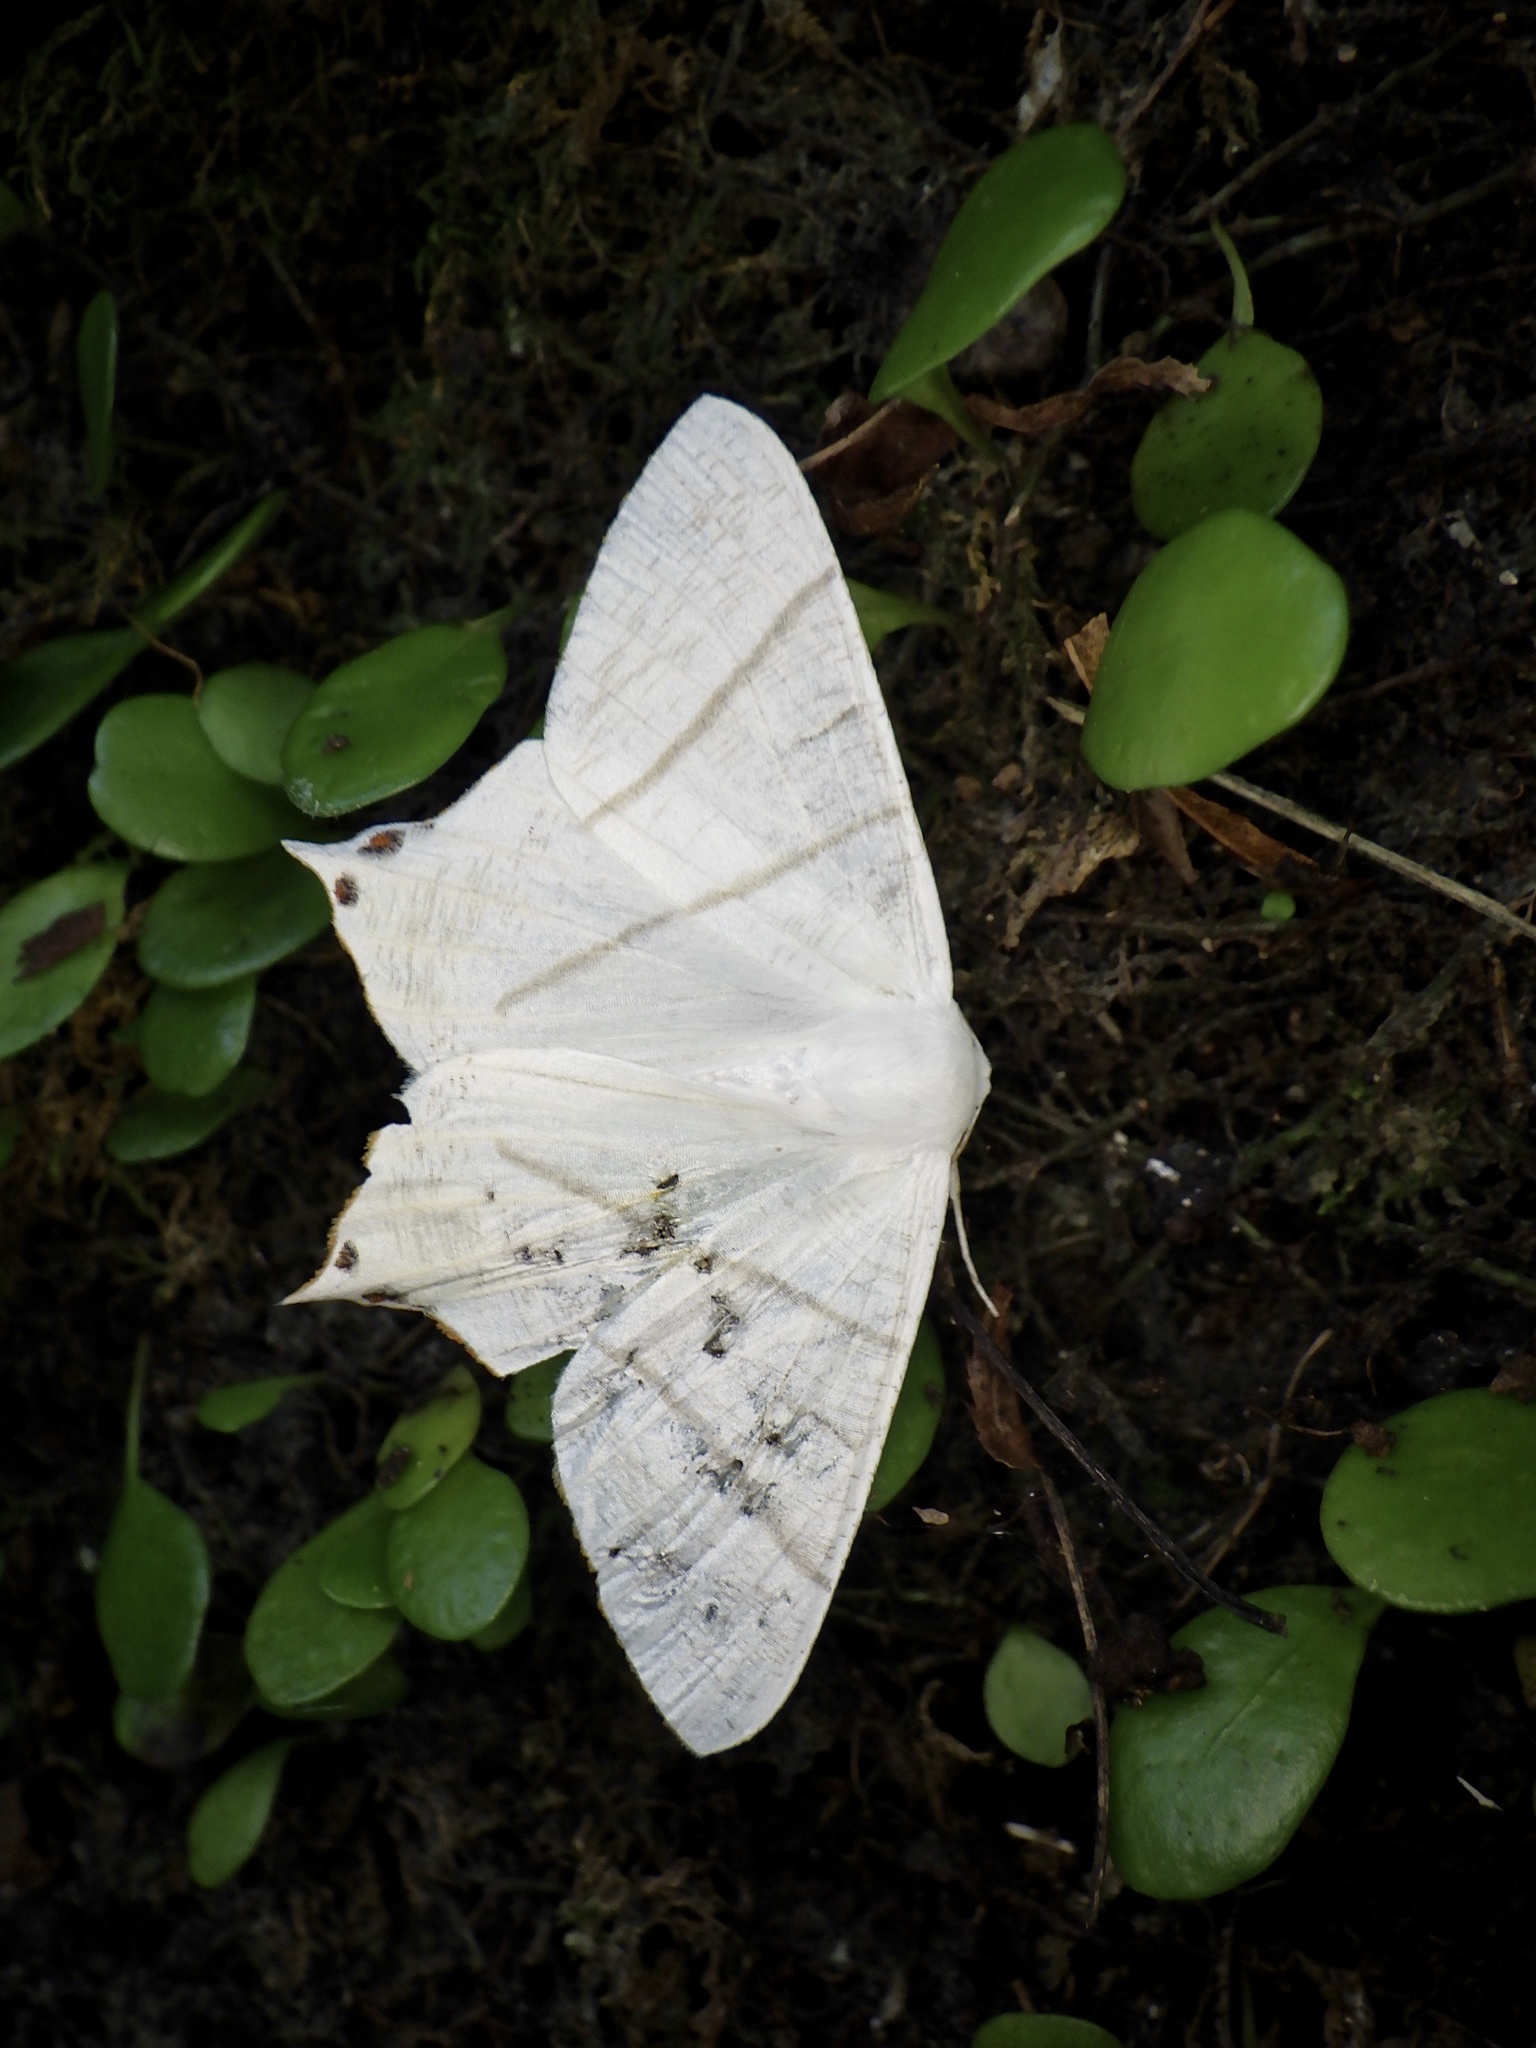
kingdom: Animalia
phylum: Arthropoda
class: Insecta
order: Lepidoptera
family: Geometridae
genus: Ourapteryx
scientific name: Ourapteryx nivea
